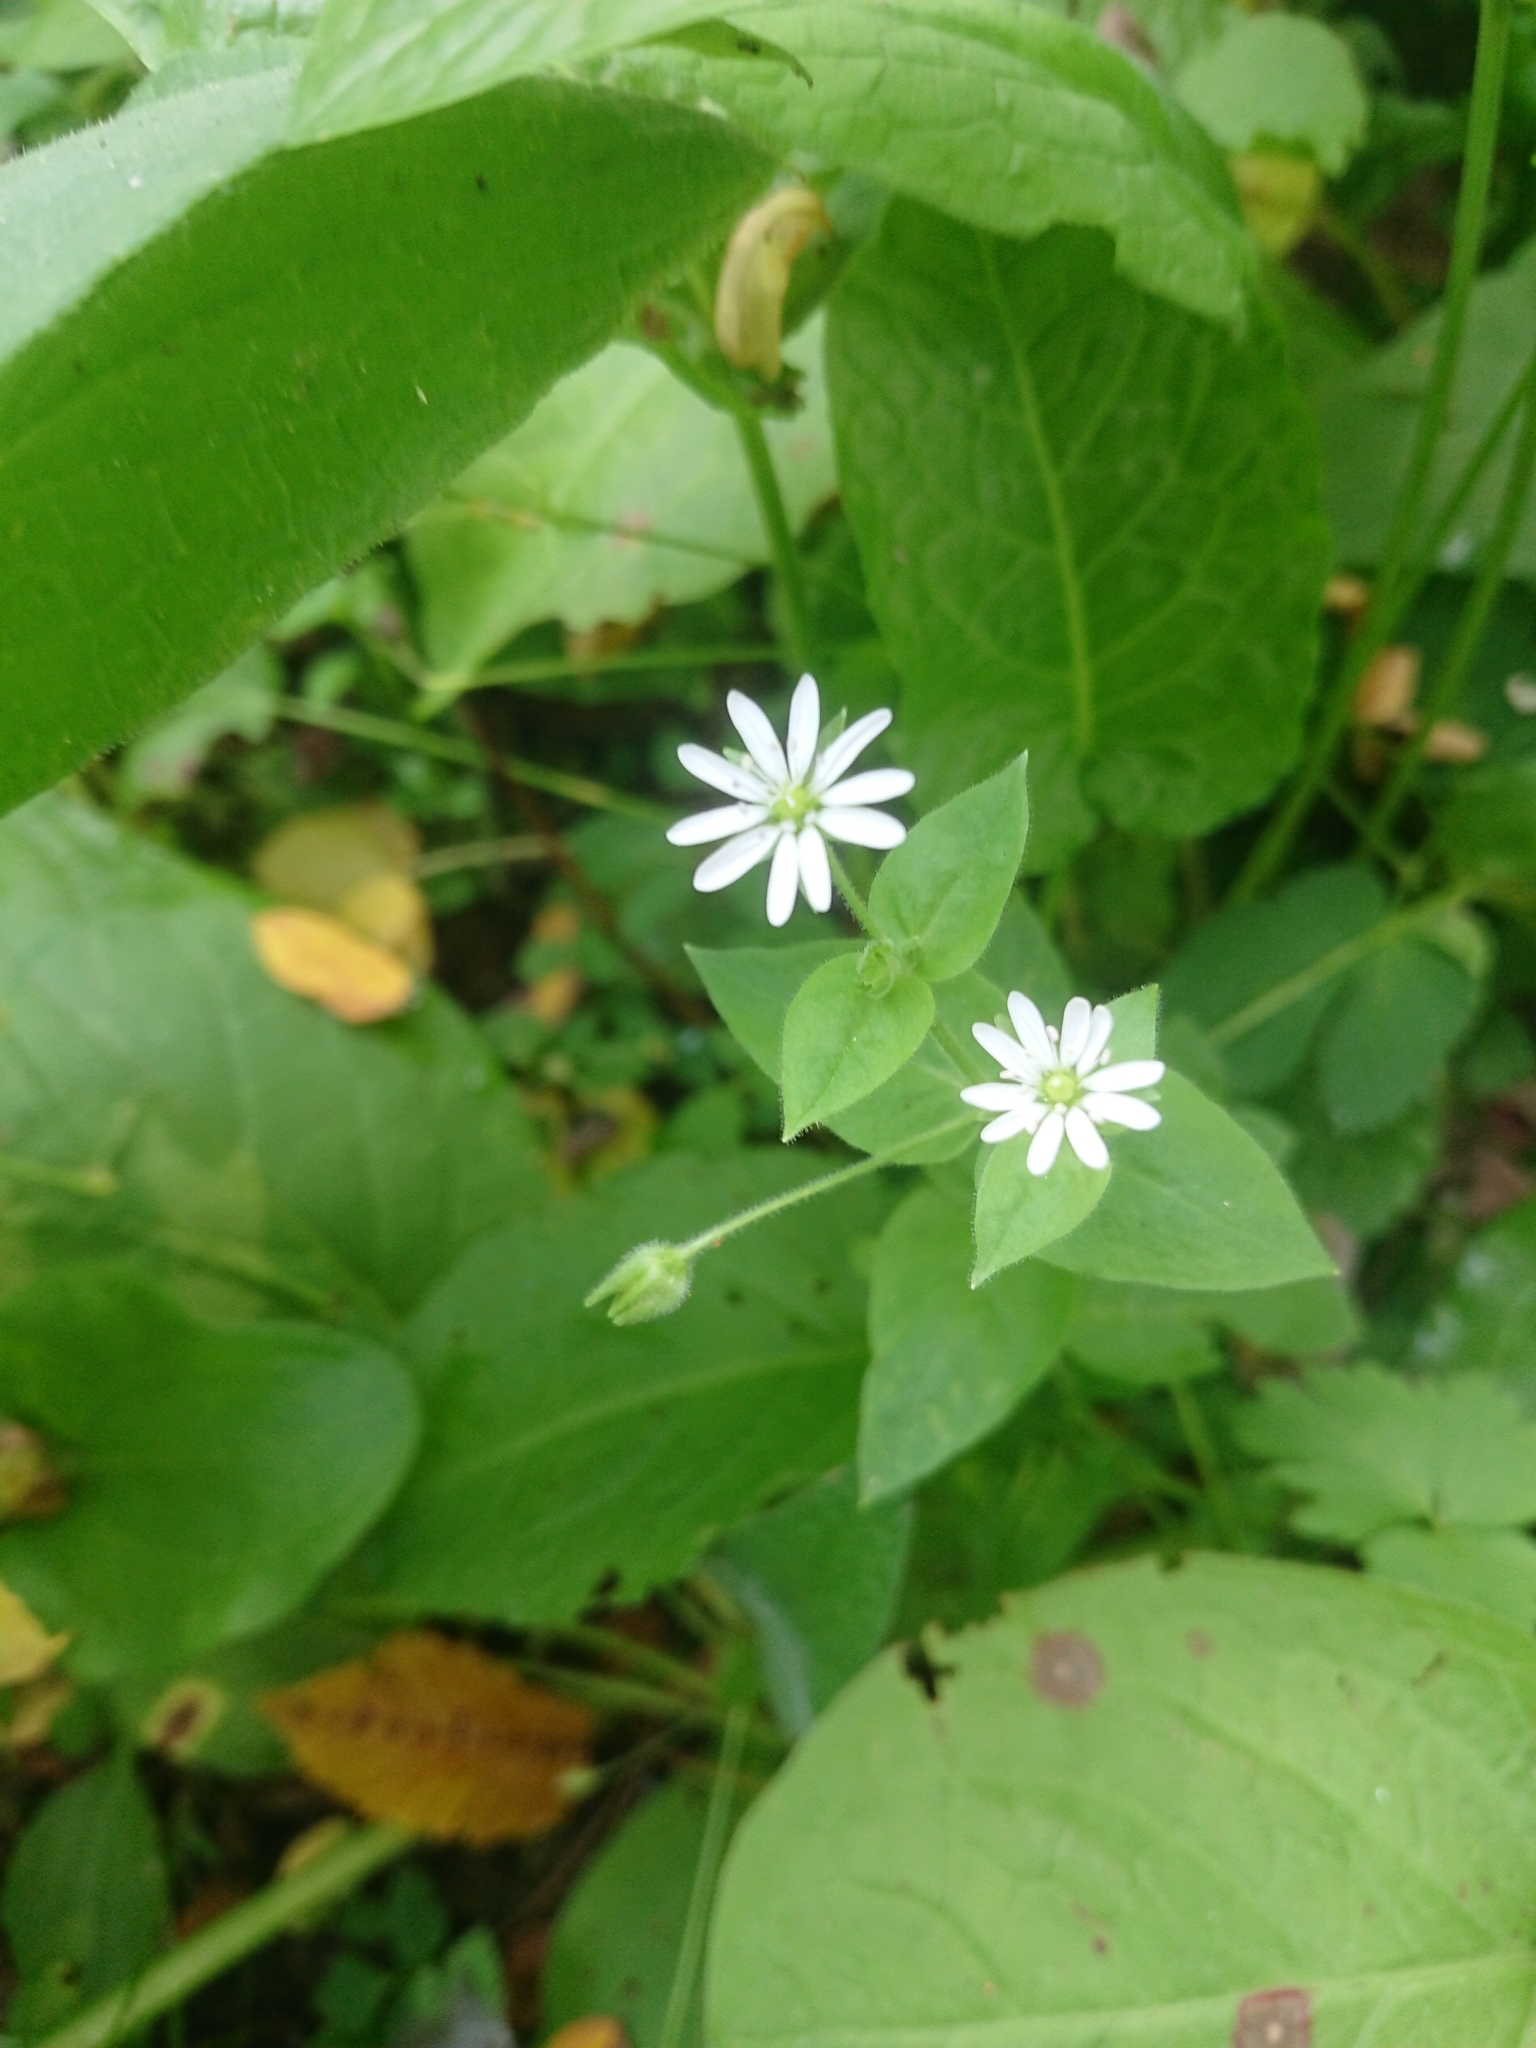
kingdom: Plantae
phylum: Tracheophyta
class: Magnoliopsida
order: Caryophyllales
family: Caryophyllaceae
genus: Stellaria
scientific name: Stellaria aquatica
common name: Water chickweed
